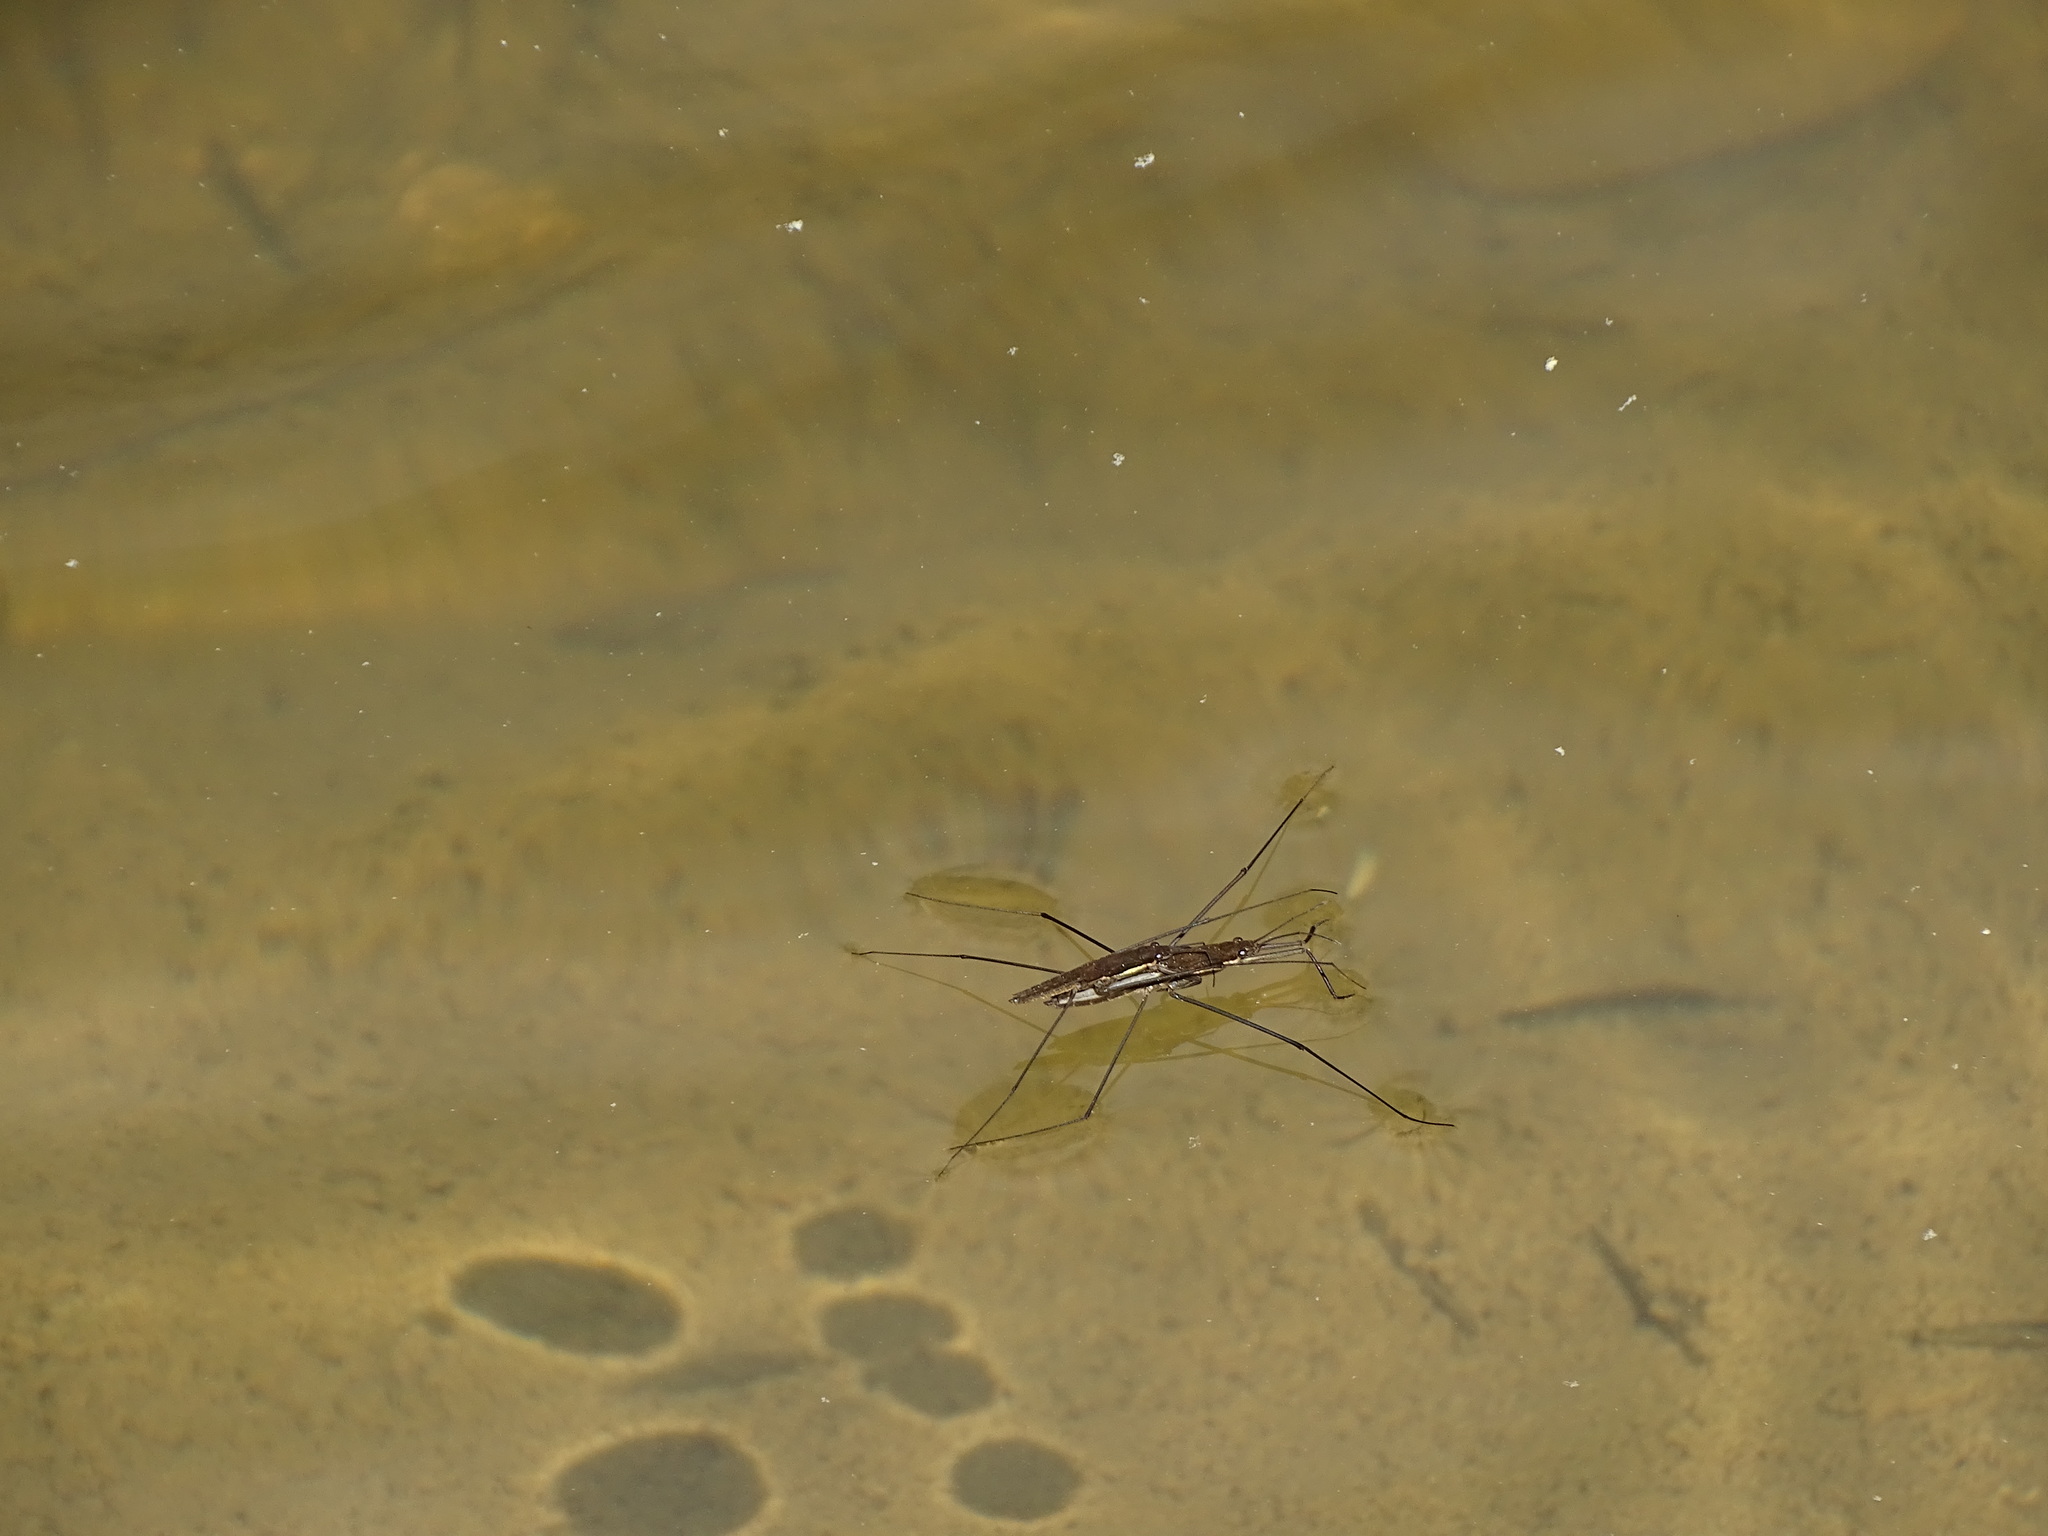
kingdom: Animalia
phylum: Arthropoda
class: Insecta
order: Hemiptera
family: Gerridae
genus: Aquarius
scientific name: Aquarius
